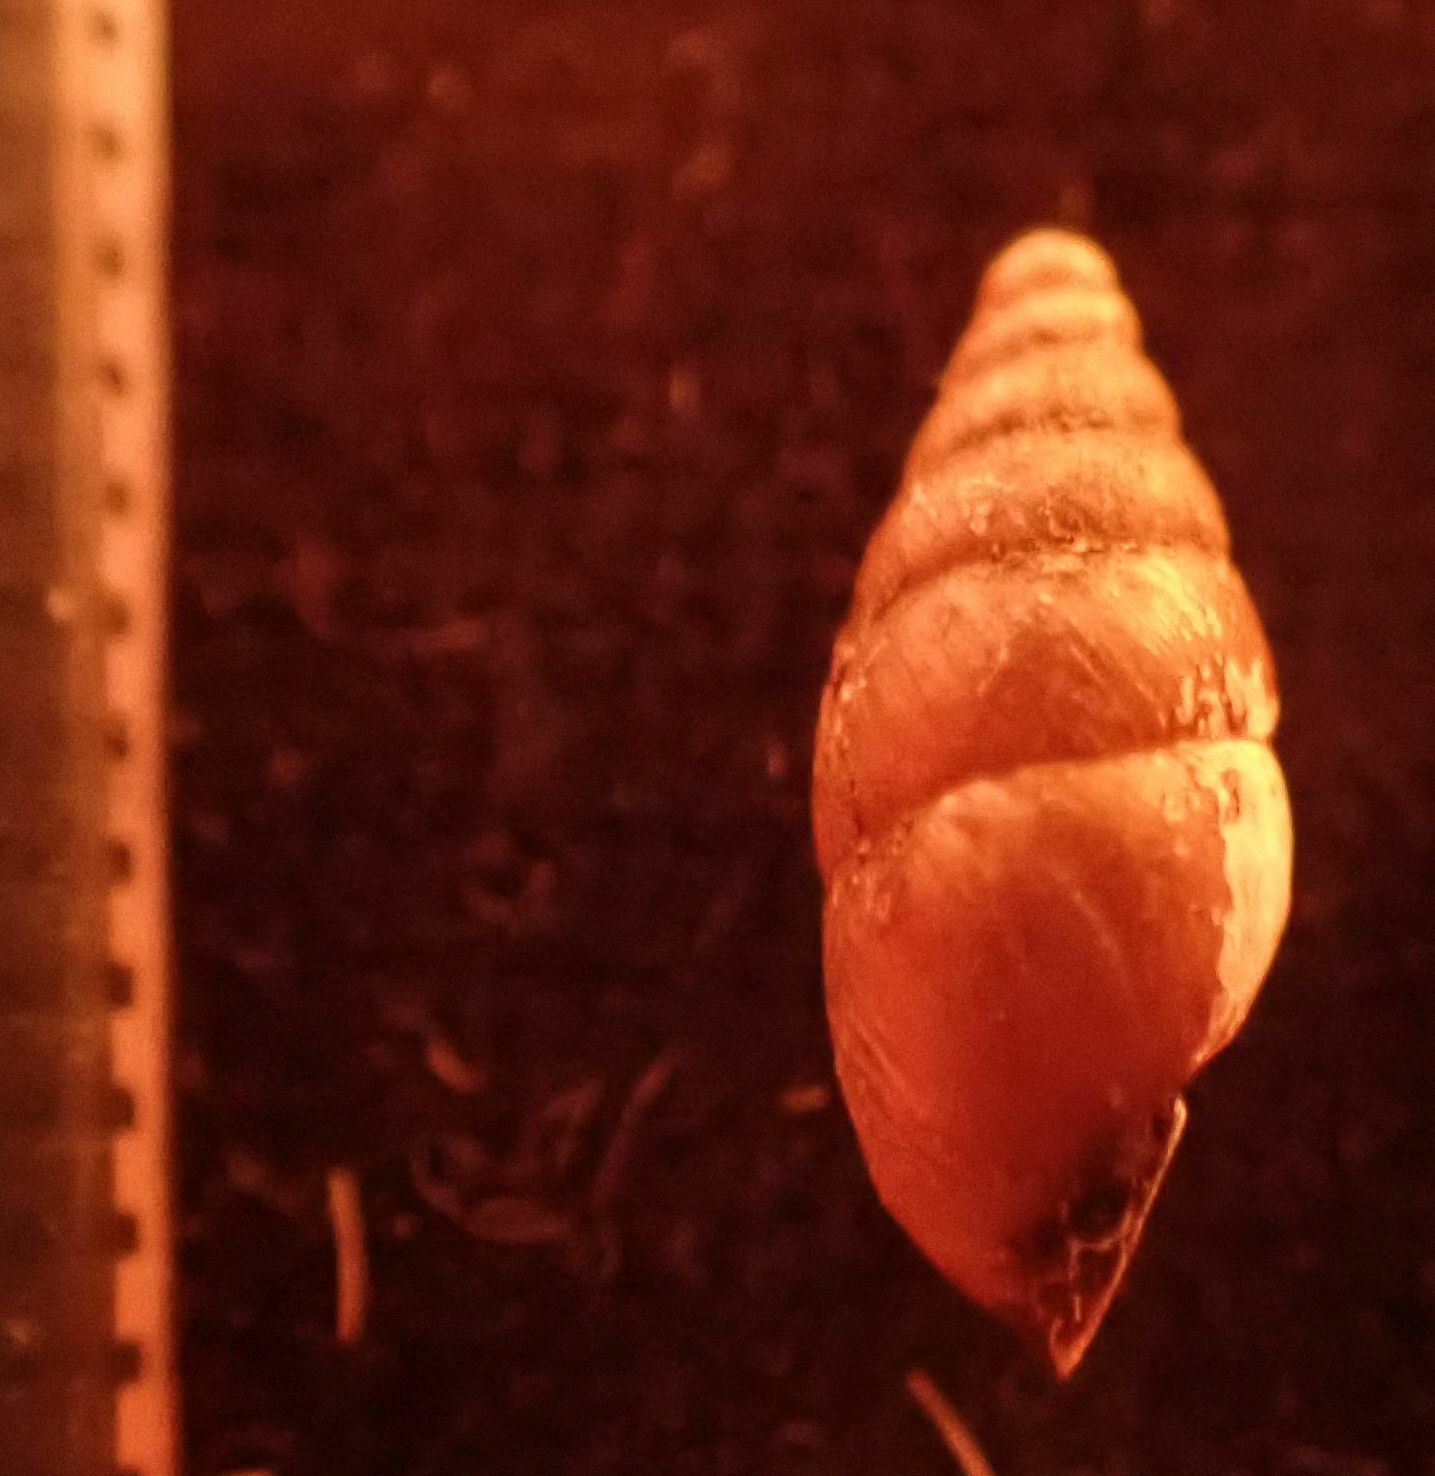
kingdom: Animalia
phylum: Mollusca
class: Gastropoda
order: Stylommatophora
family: Enidae
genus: Merdigera
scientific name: Merdigera obscura
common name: Lesser bulin
